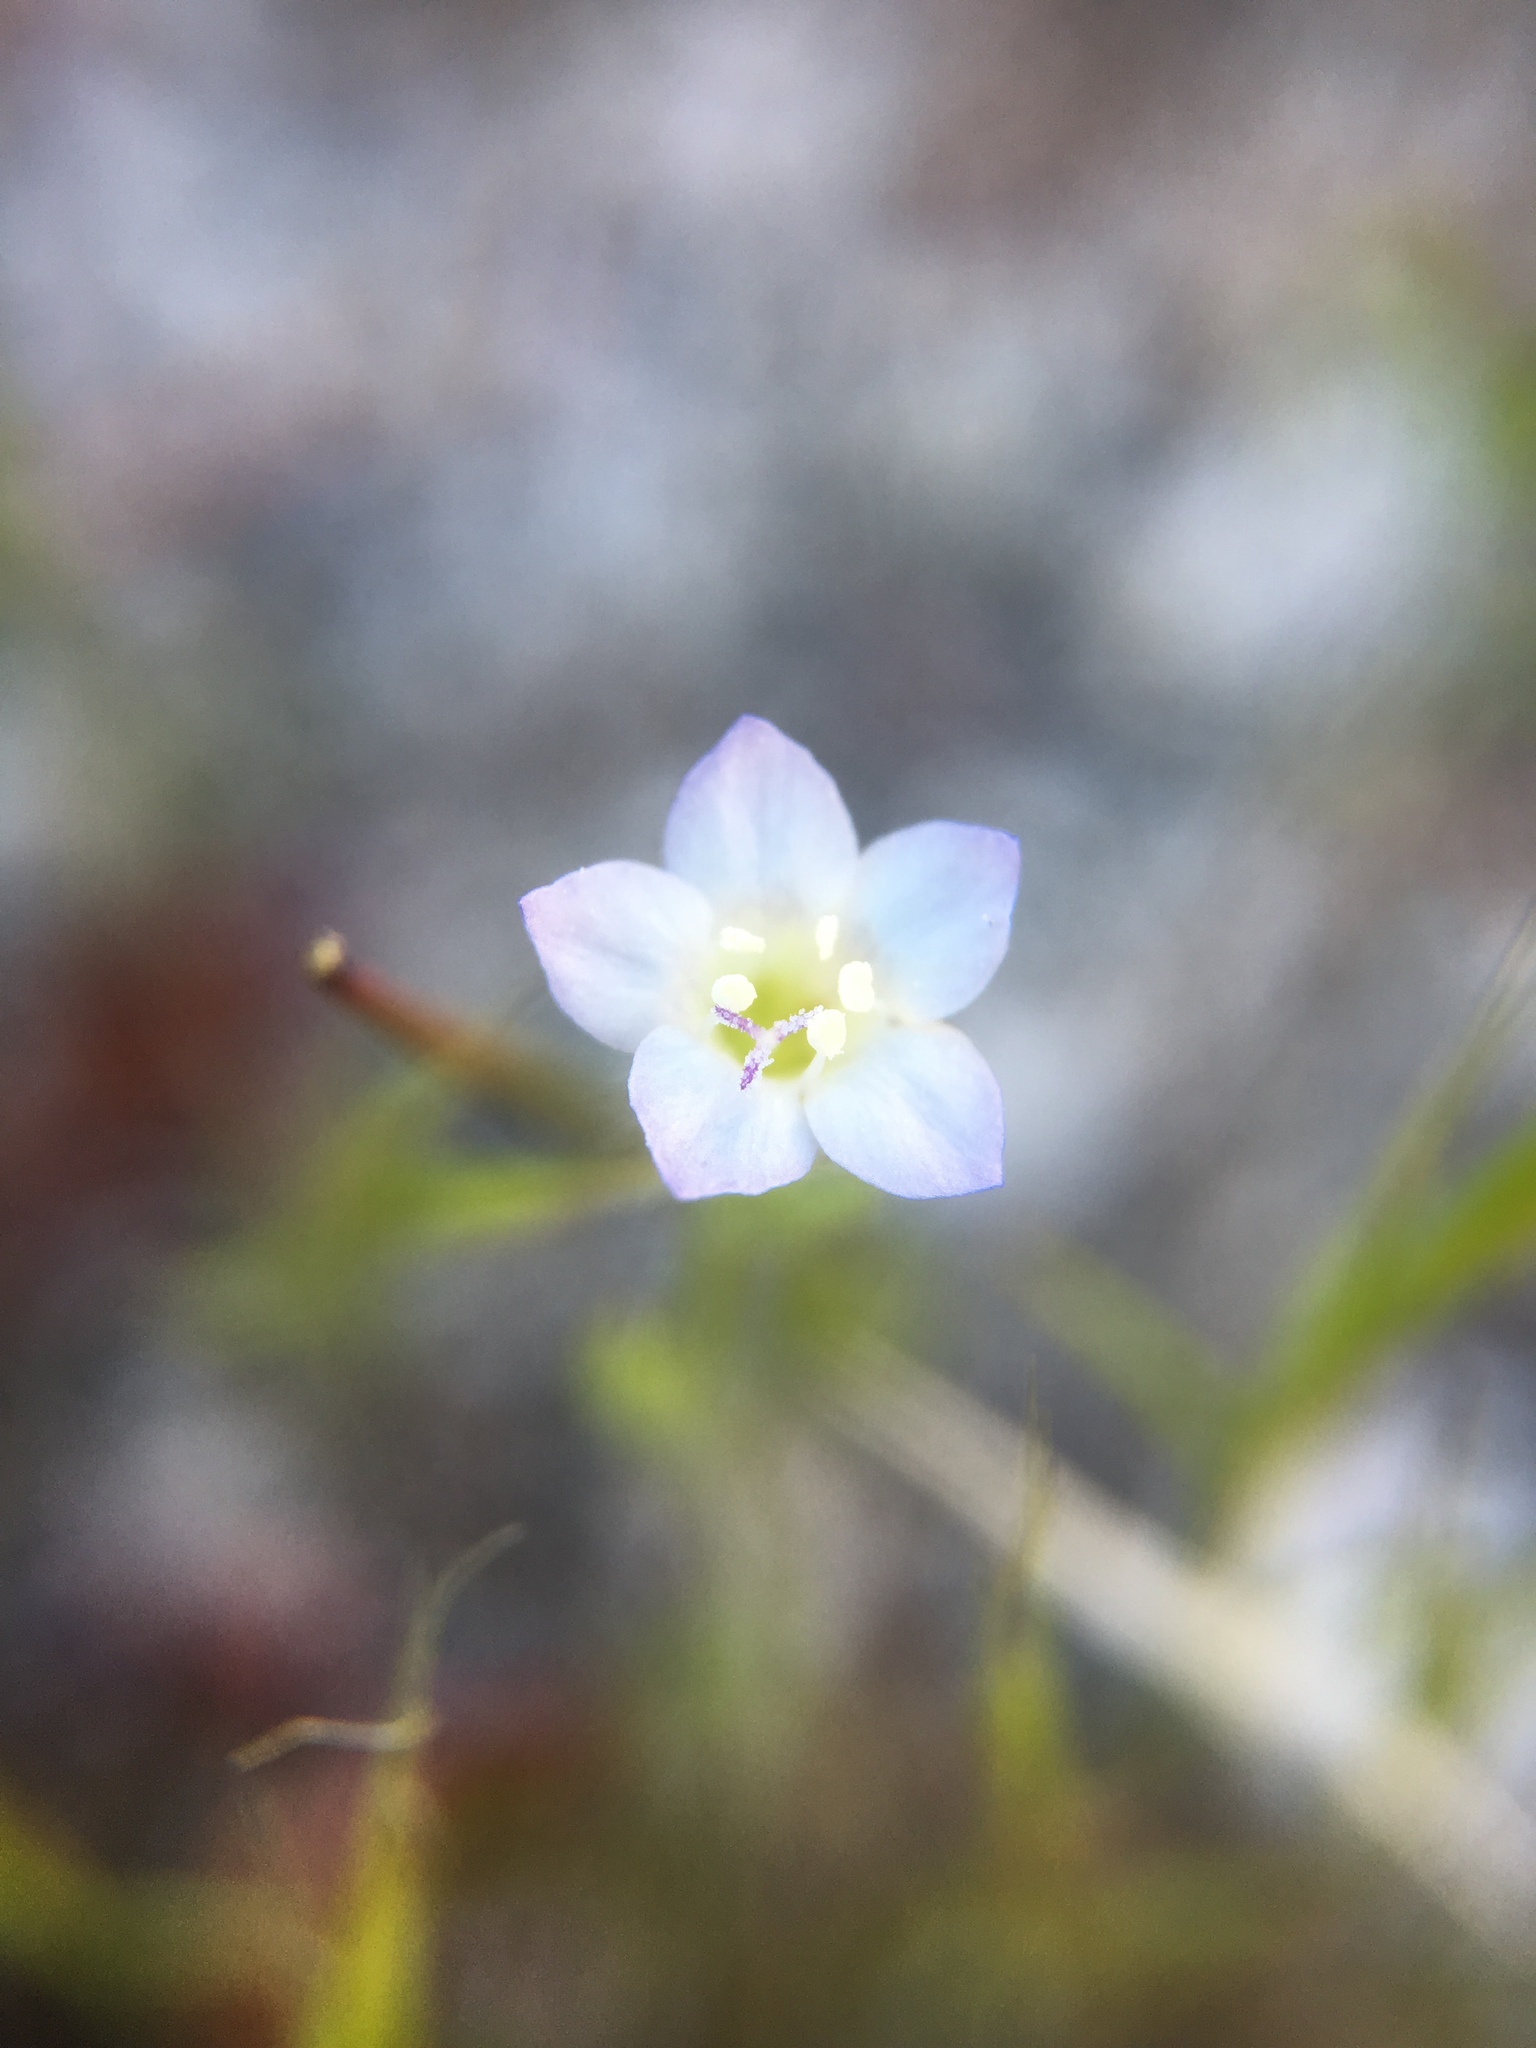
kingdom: Plantae
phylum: Tracheophyta
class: Magnoliopsida
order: Ericales
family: Polemoniaceae
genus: Gilia
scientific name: Gilia angelensis
